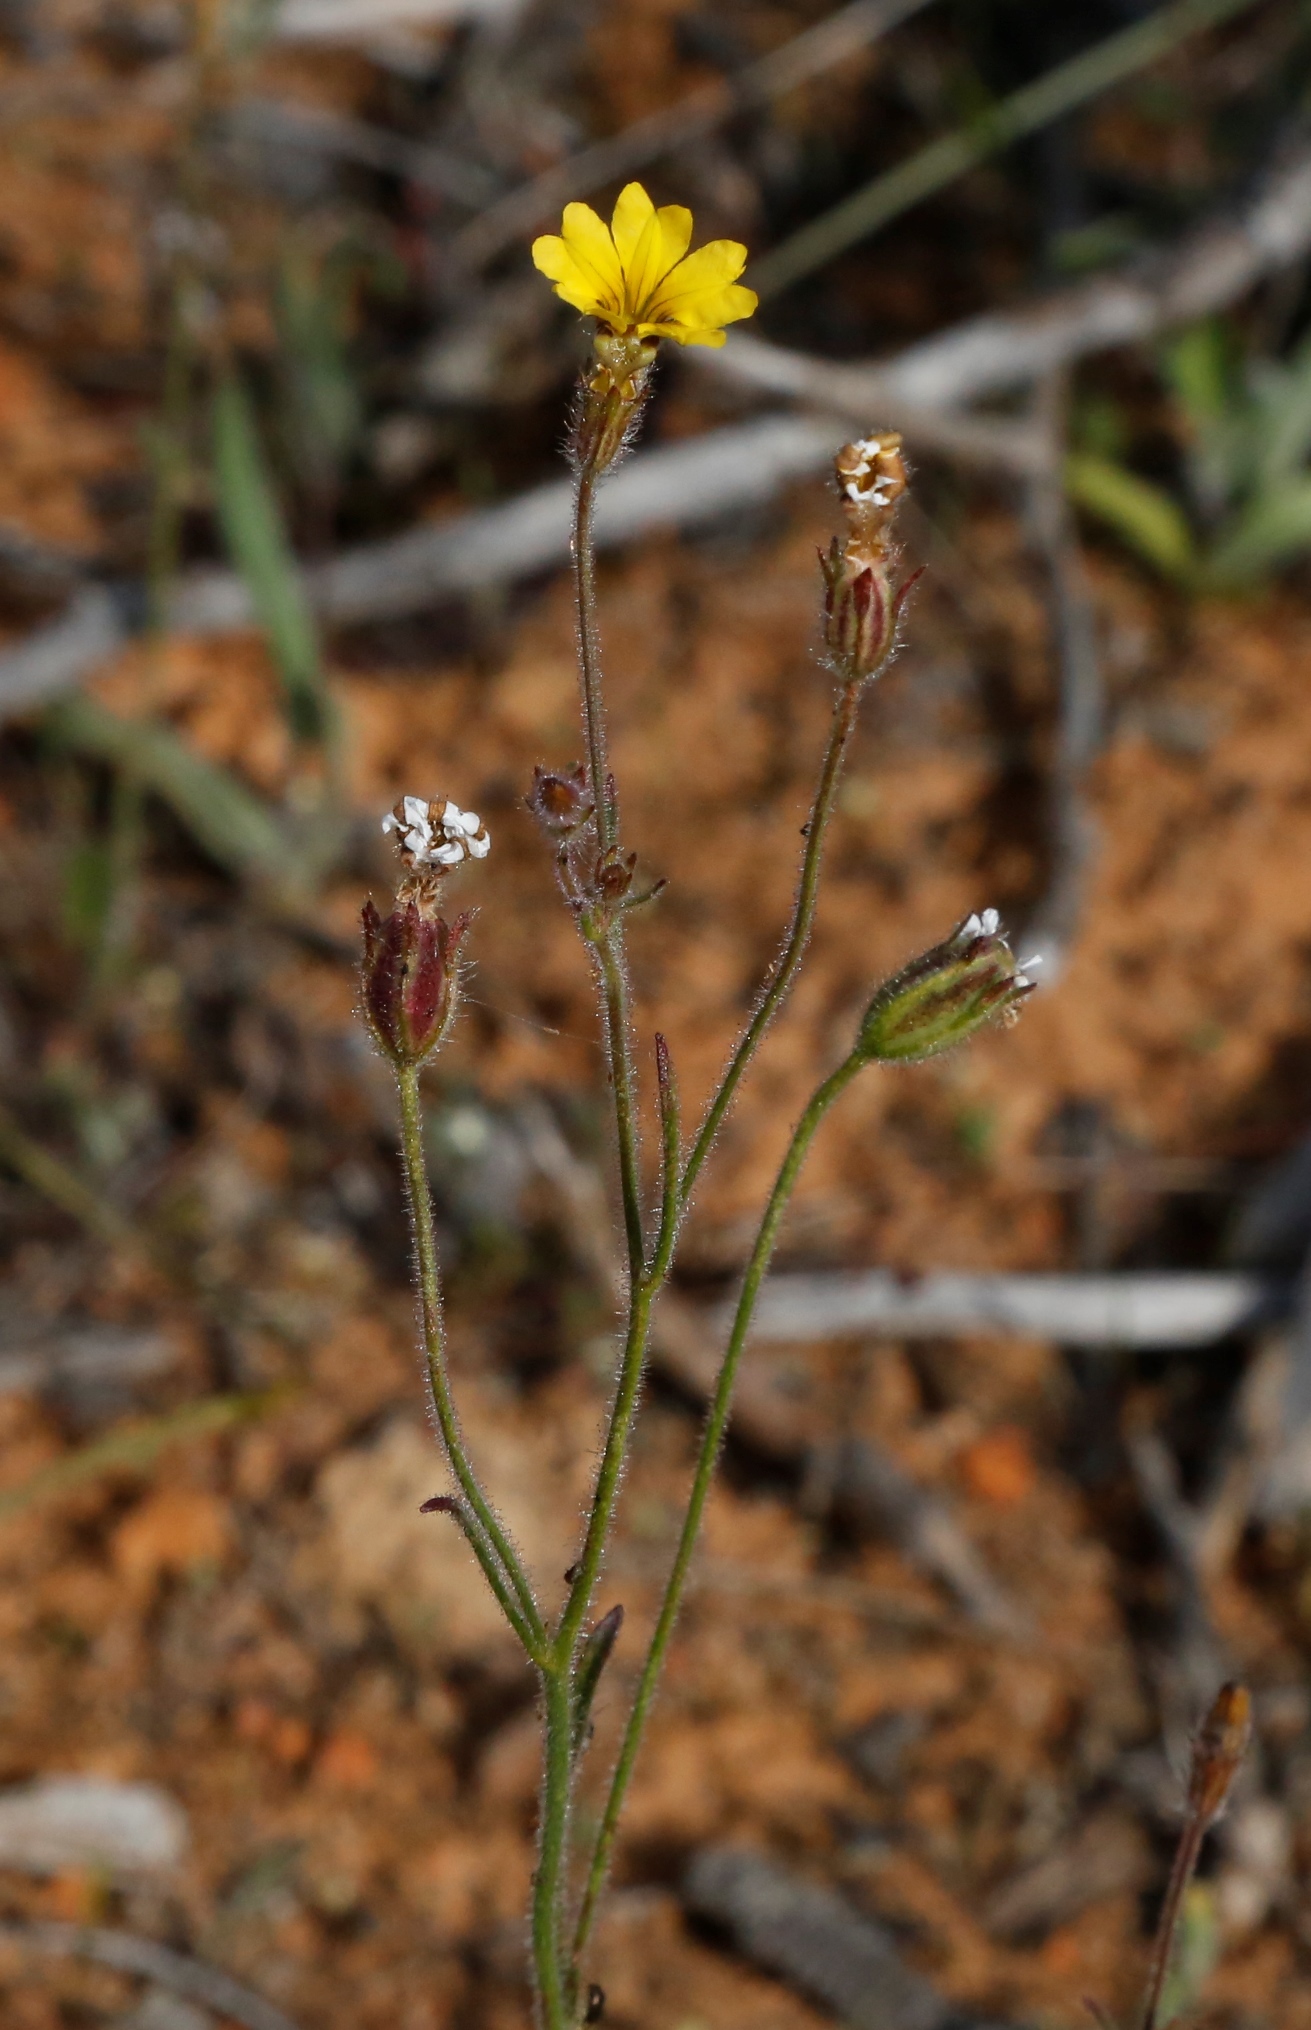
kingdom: Plantae
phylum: Tracheophyta
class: Magnoliopsida
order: Asterales
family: Goodeniaceae
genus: Goodenia
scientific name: Goodenia berardiana
